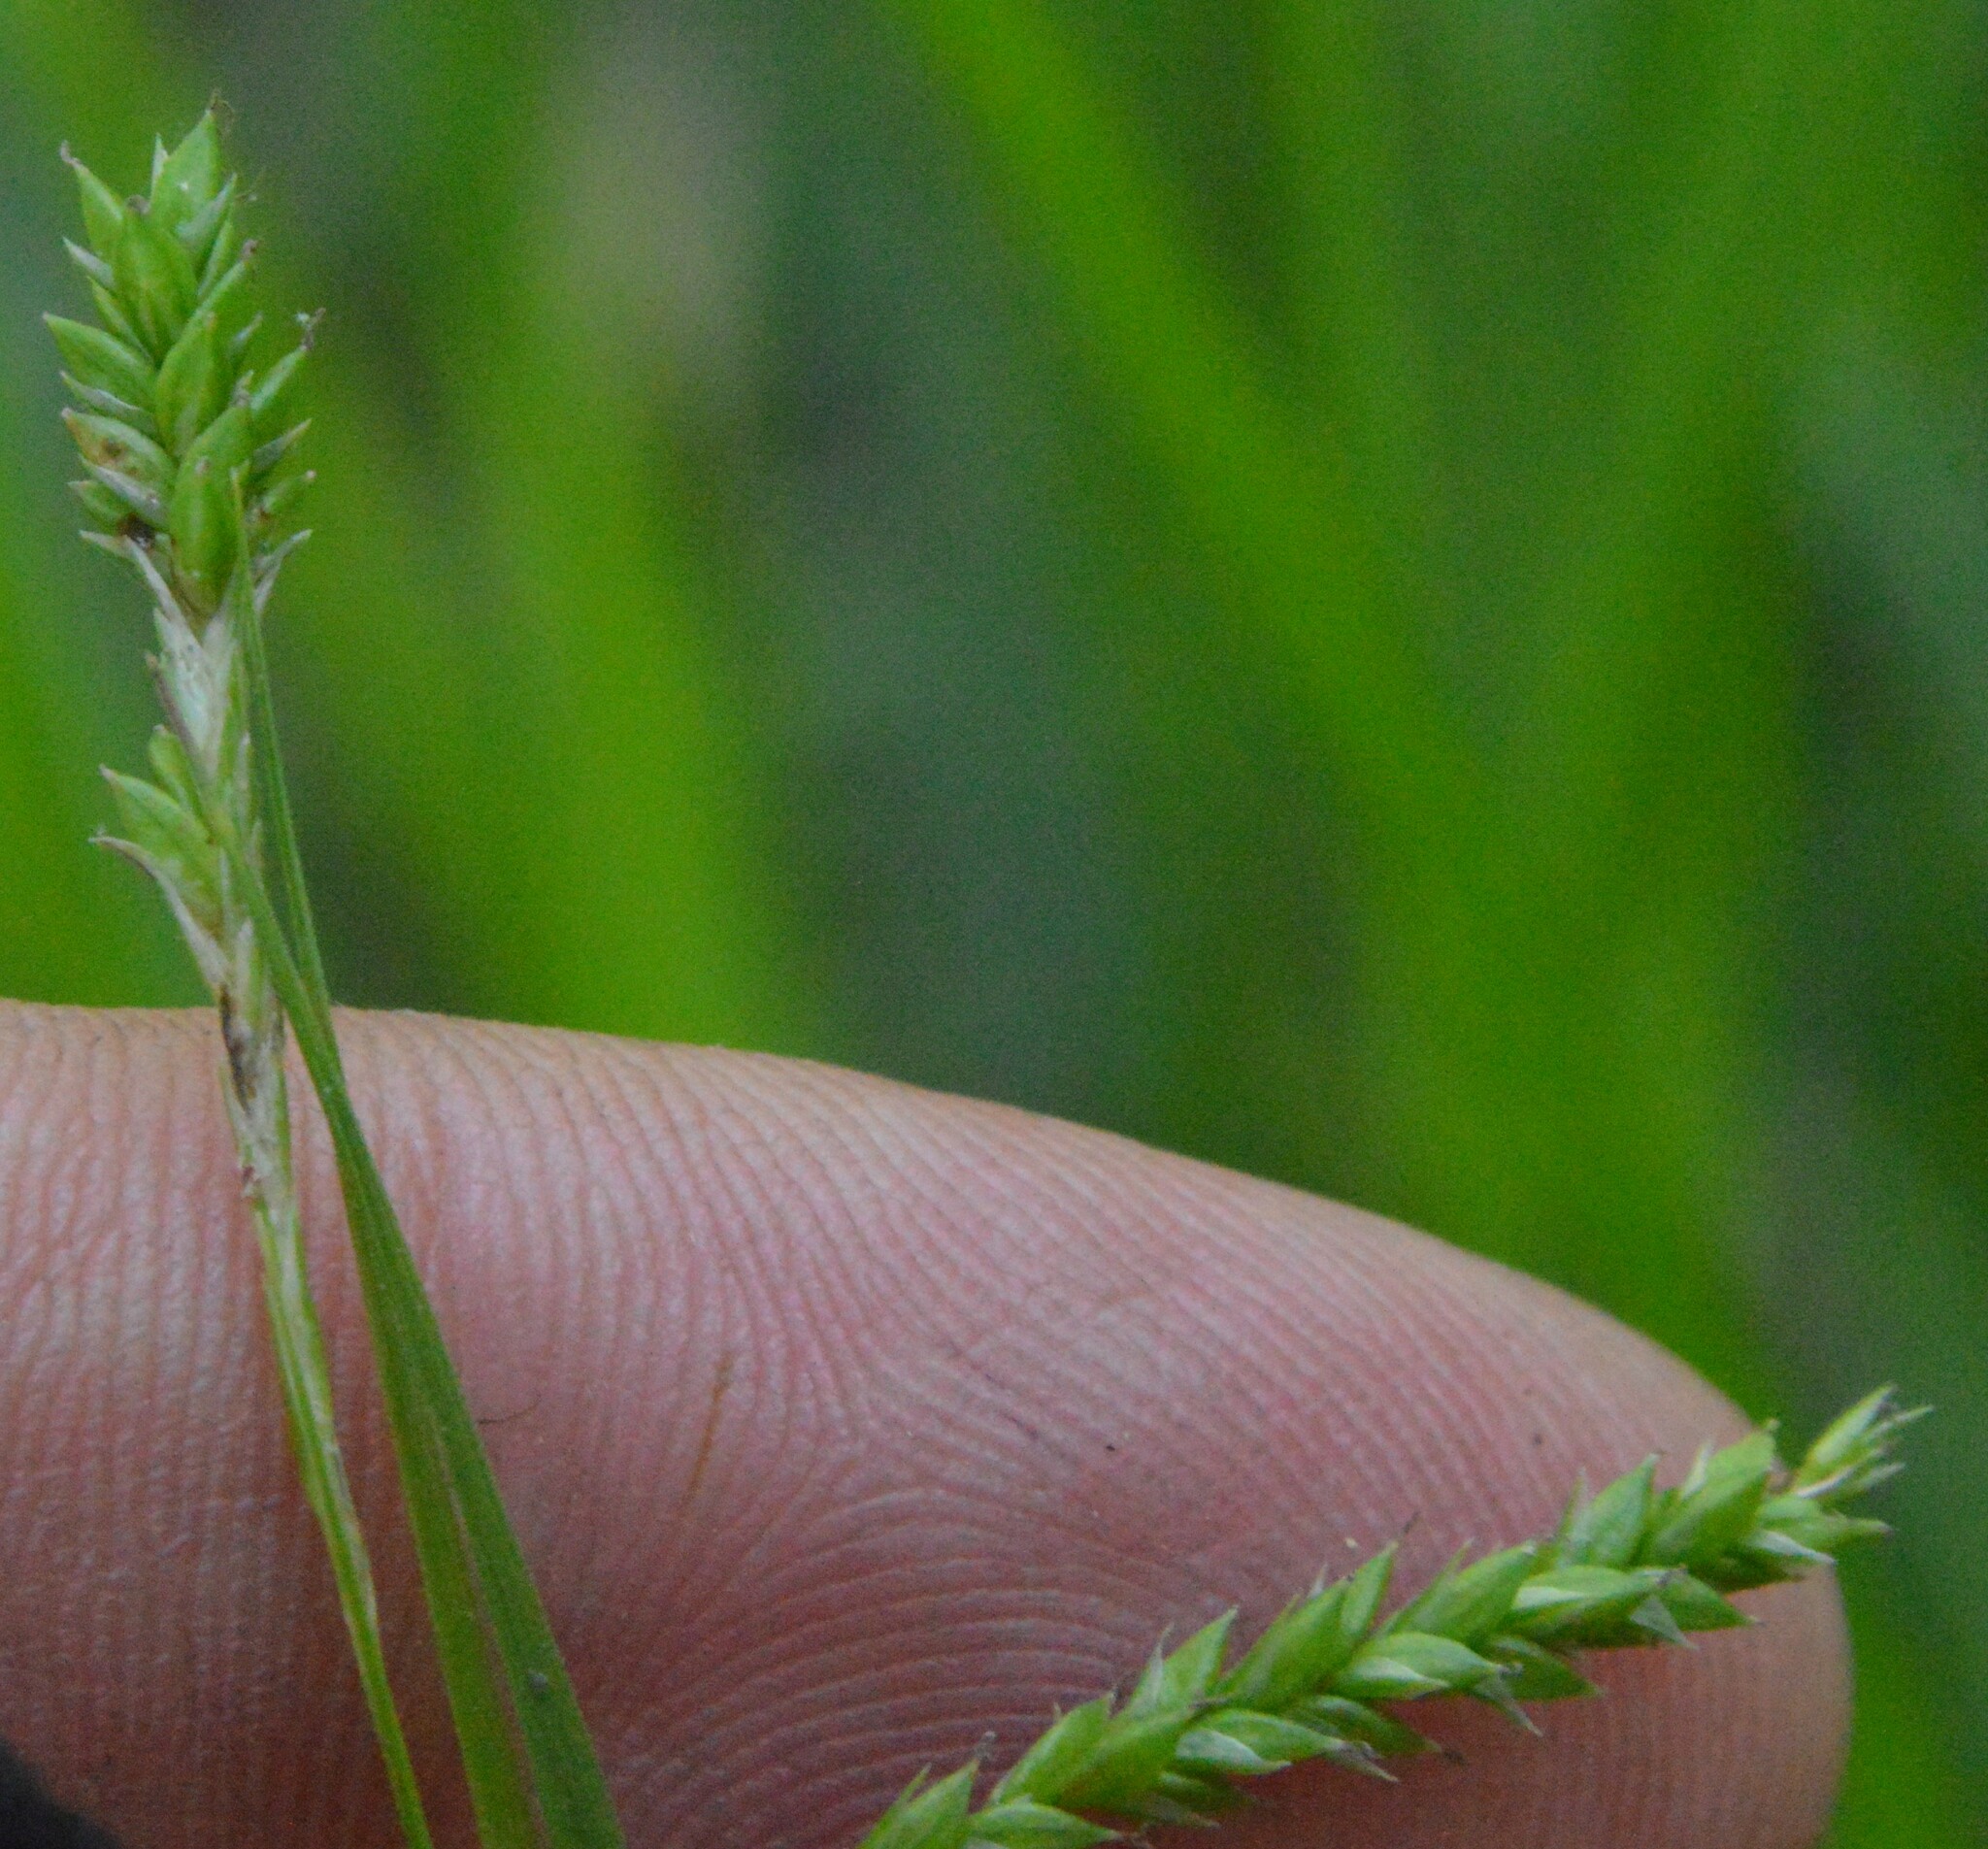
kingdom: Plantae
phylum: Tracheophyta
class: Liliopsida
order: Poales
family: Cyperaceae
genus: Carex
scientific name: Carex oxylepis
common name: Sharpscale sedge
